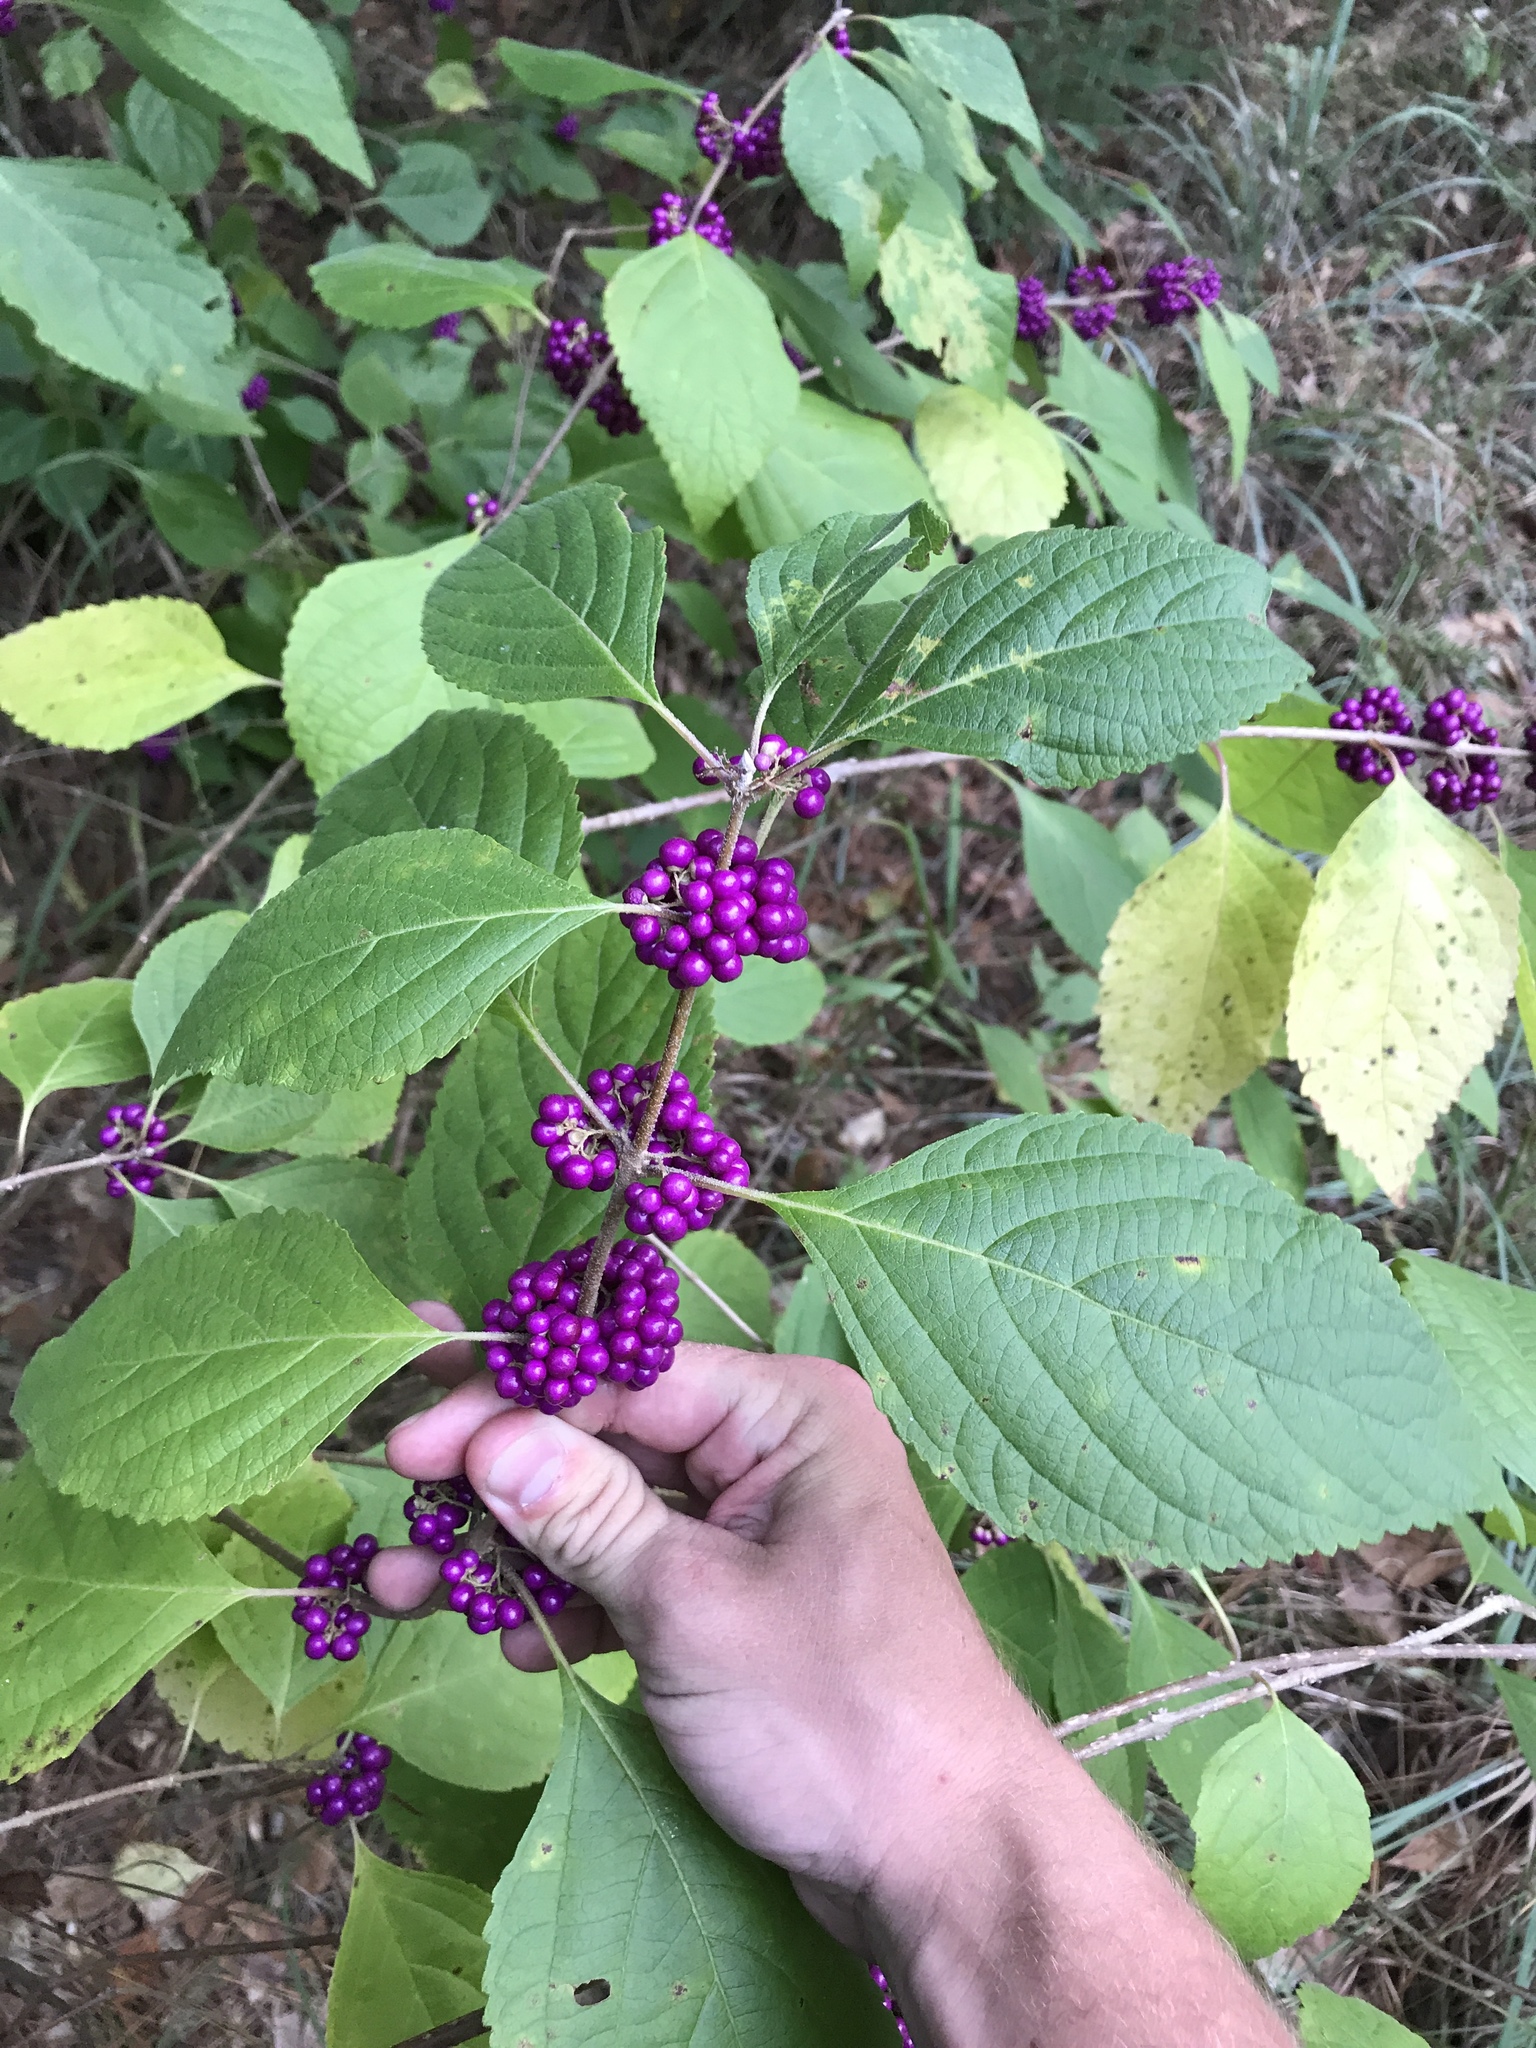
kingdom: Plantae
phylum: Tracheophyta
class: Magnoliopsida
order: Lamiales
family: Lamiaceae
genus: Callicarpa
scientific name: Callicarpa americana
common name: American beautyberry
